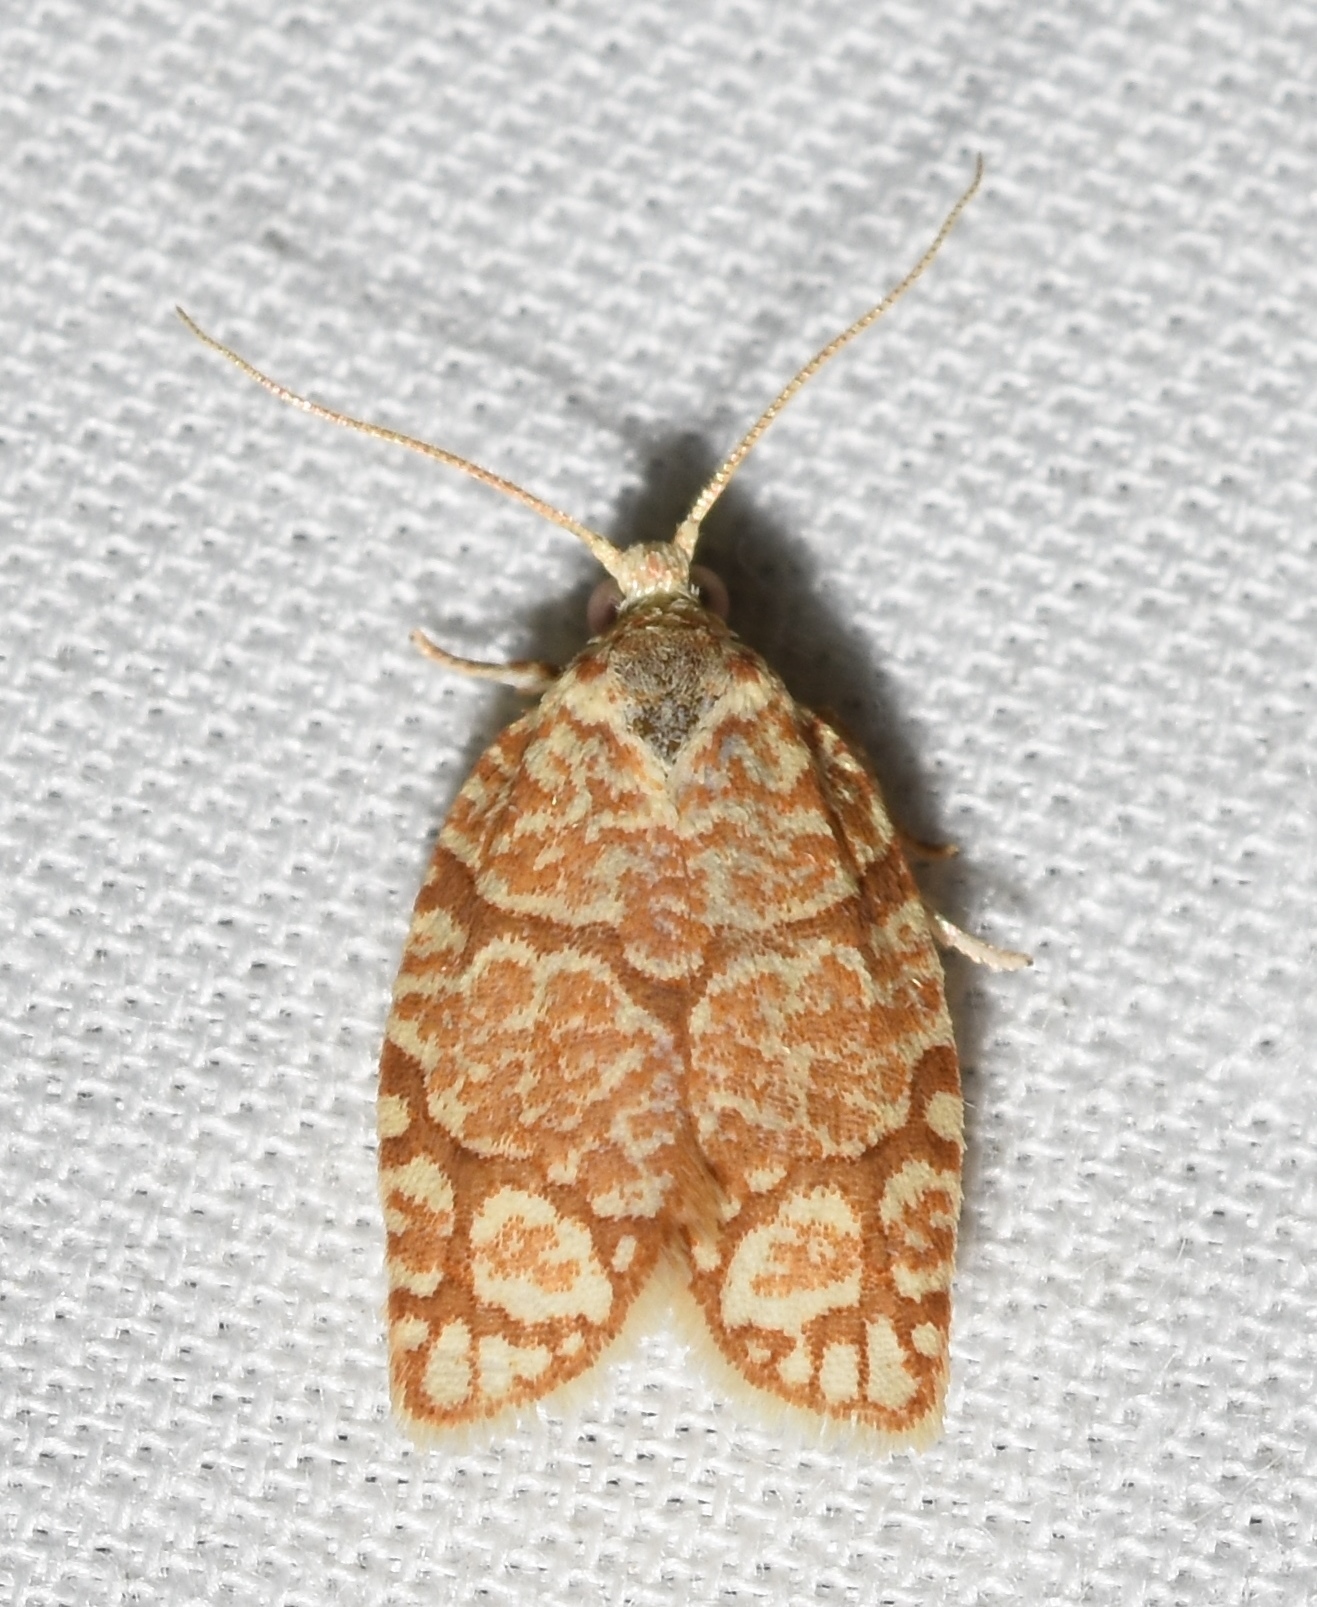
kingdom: Animalia
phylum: Arthropoda
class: Insecta
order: Lepidoptera
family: Tortricidae
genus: Argyrotaenia
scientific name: Argyrotaenia quercifoliana
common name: Yellow-winged oak leafroller moth
